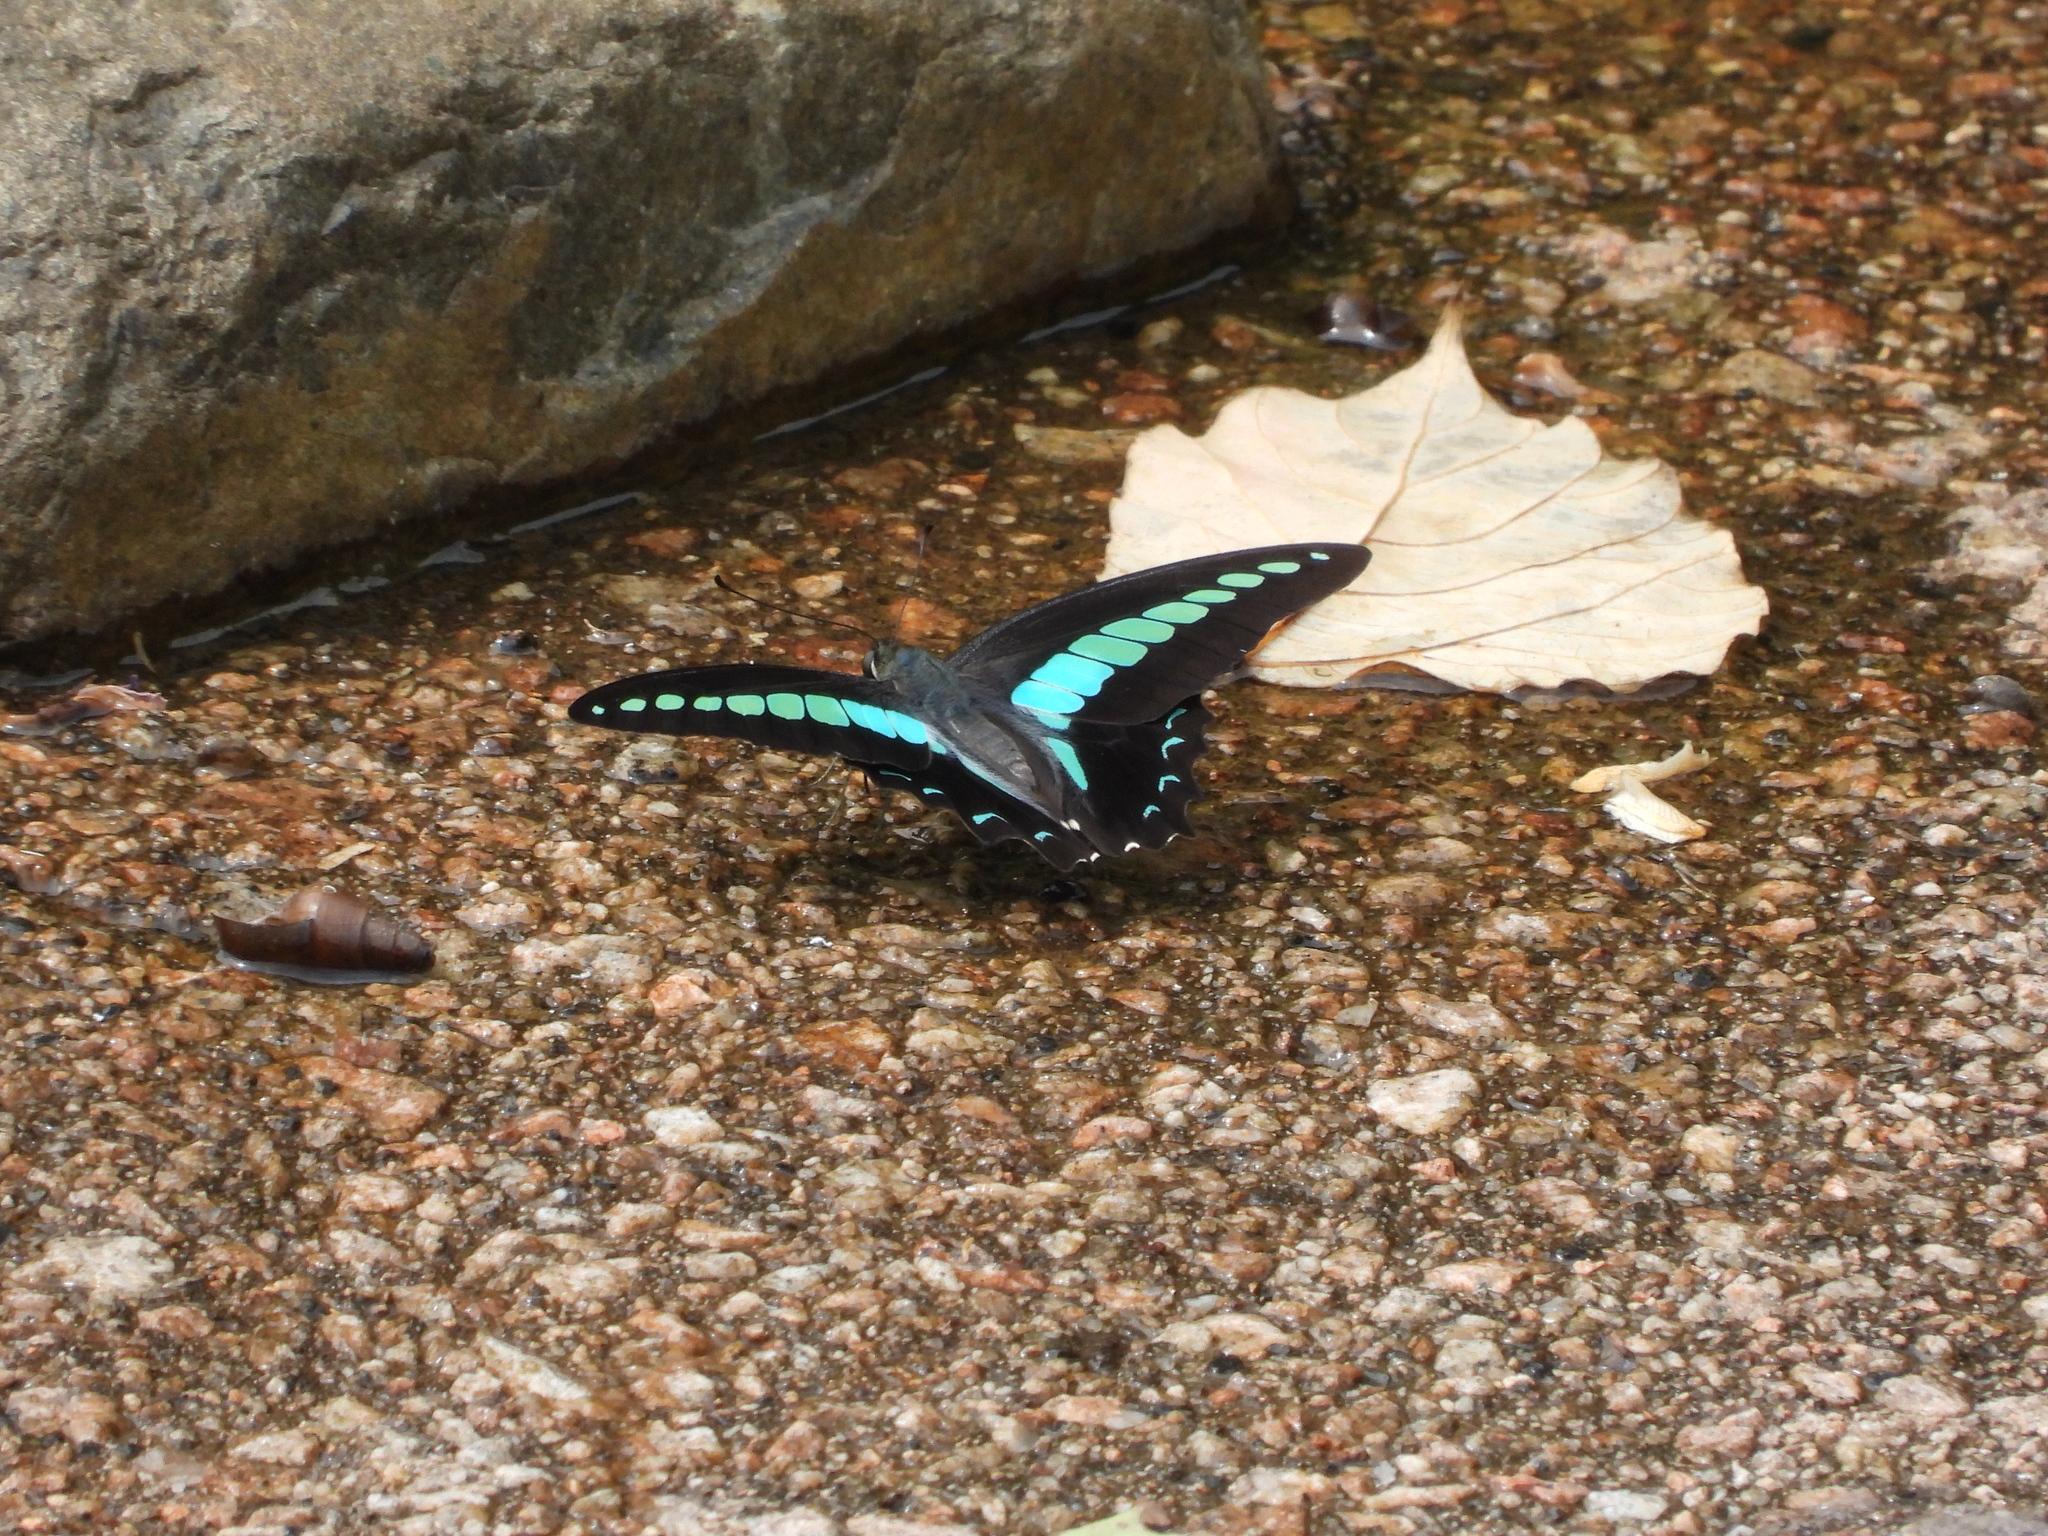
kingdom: Fungi
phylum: Ascomycota
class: Sordariomycetes
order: Microascales
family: Microascaceae
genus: Graphium
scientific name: Graphium sarpedon
